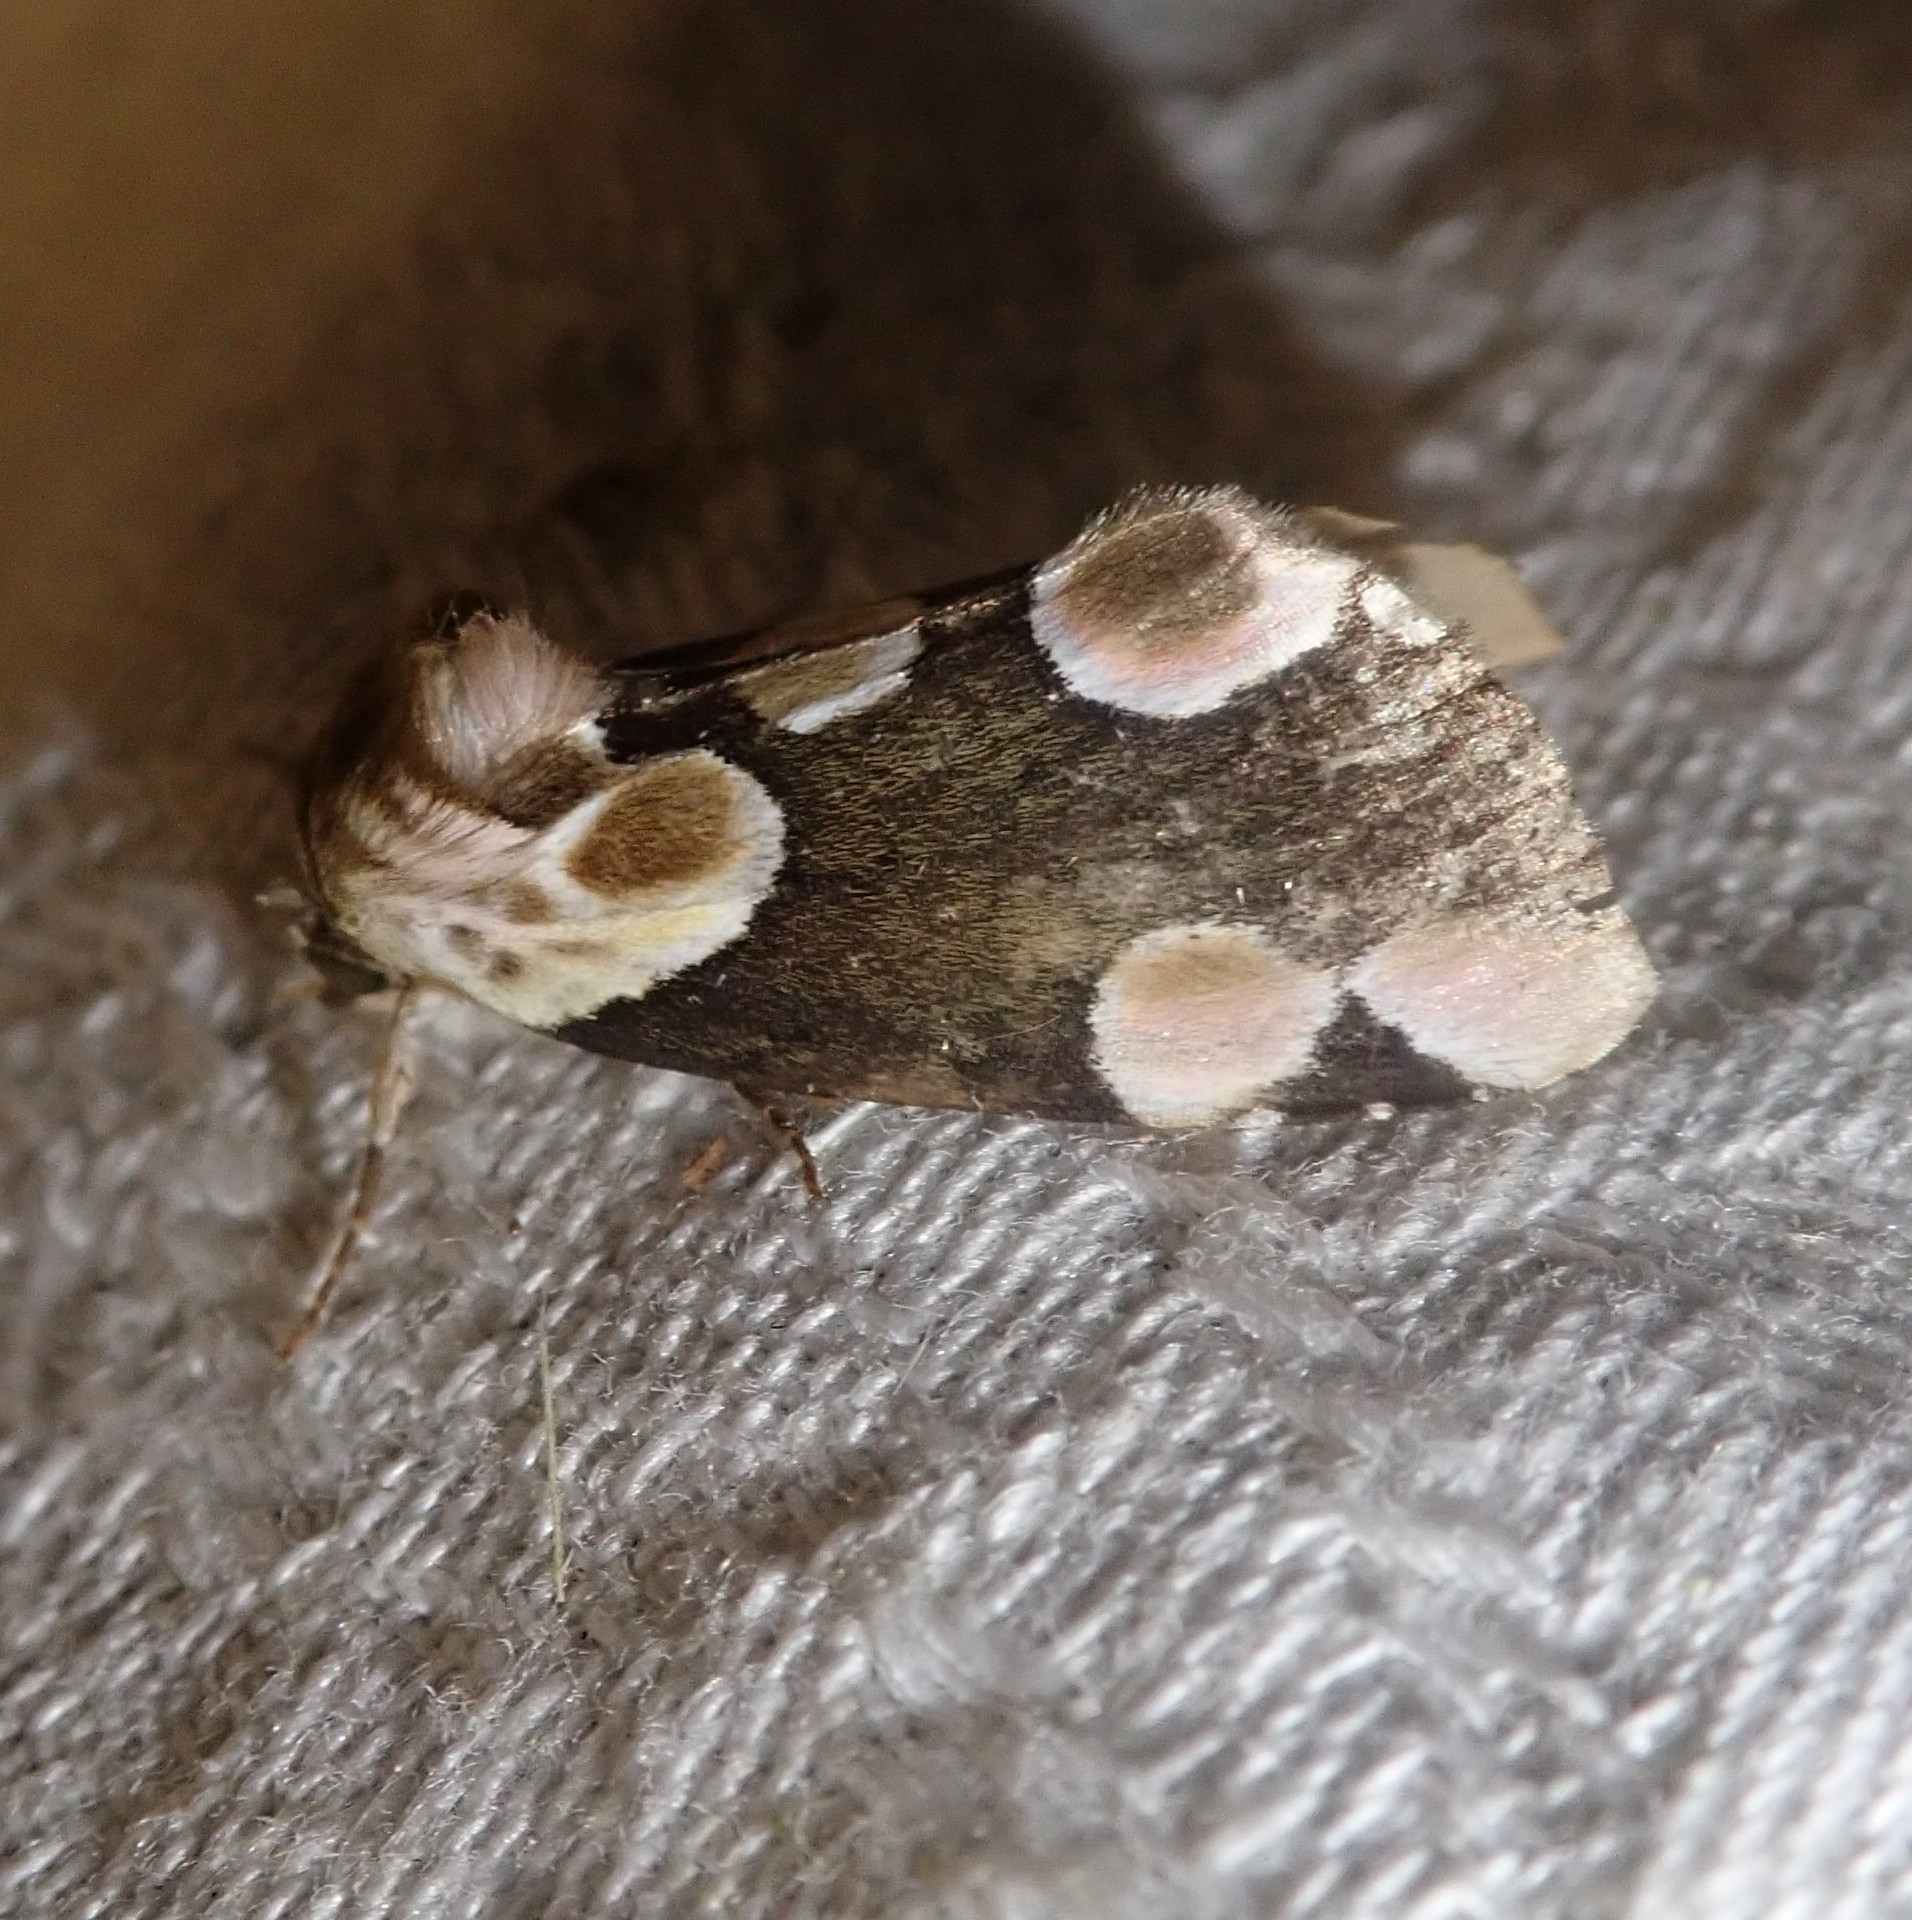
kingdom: Animalia
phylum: Arthropoda
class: Insecta
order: Lepidoptera
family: Drepanidae
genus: Thyatira
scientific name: Thyatira batis
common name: Peach blossom
